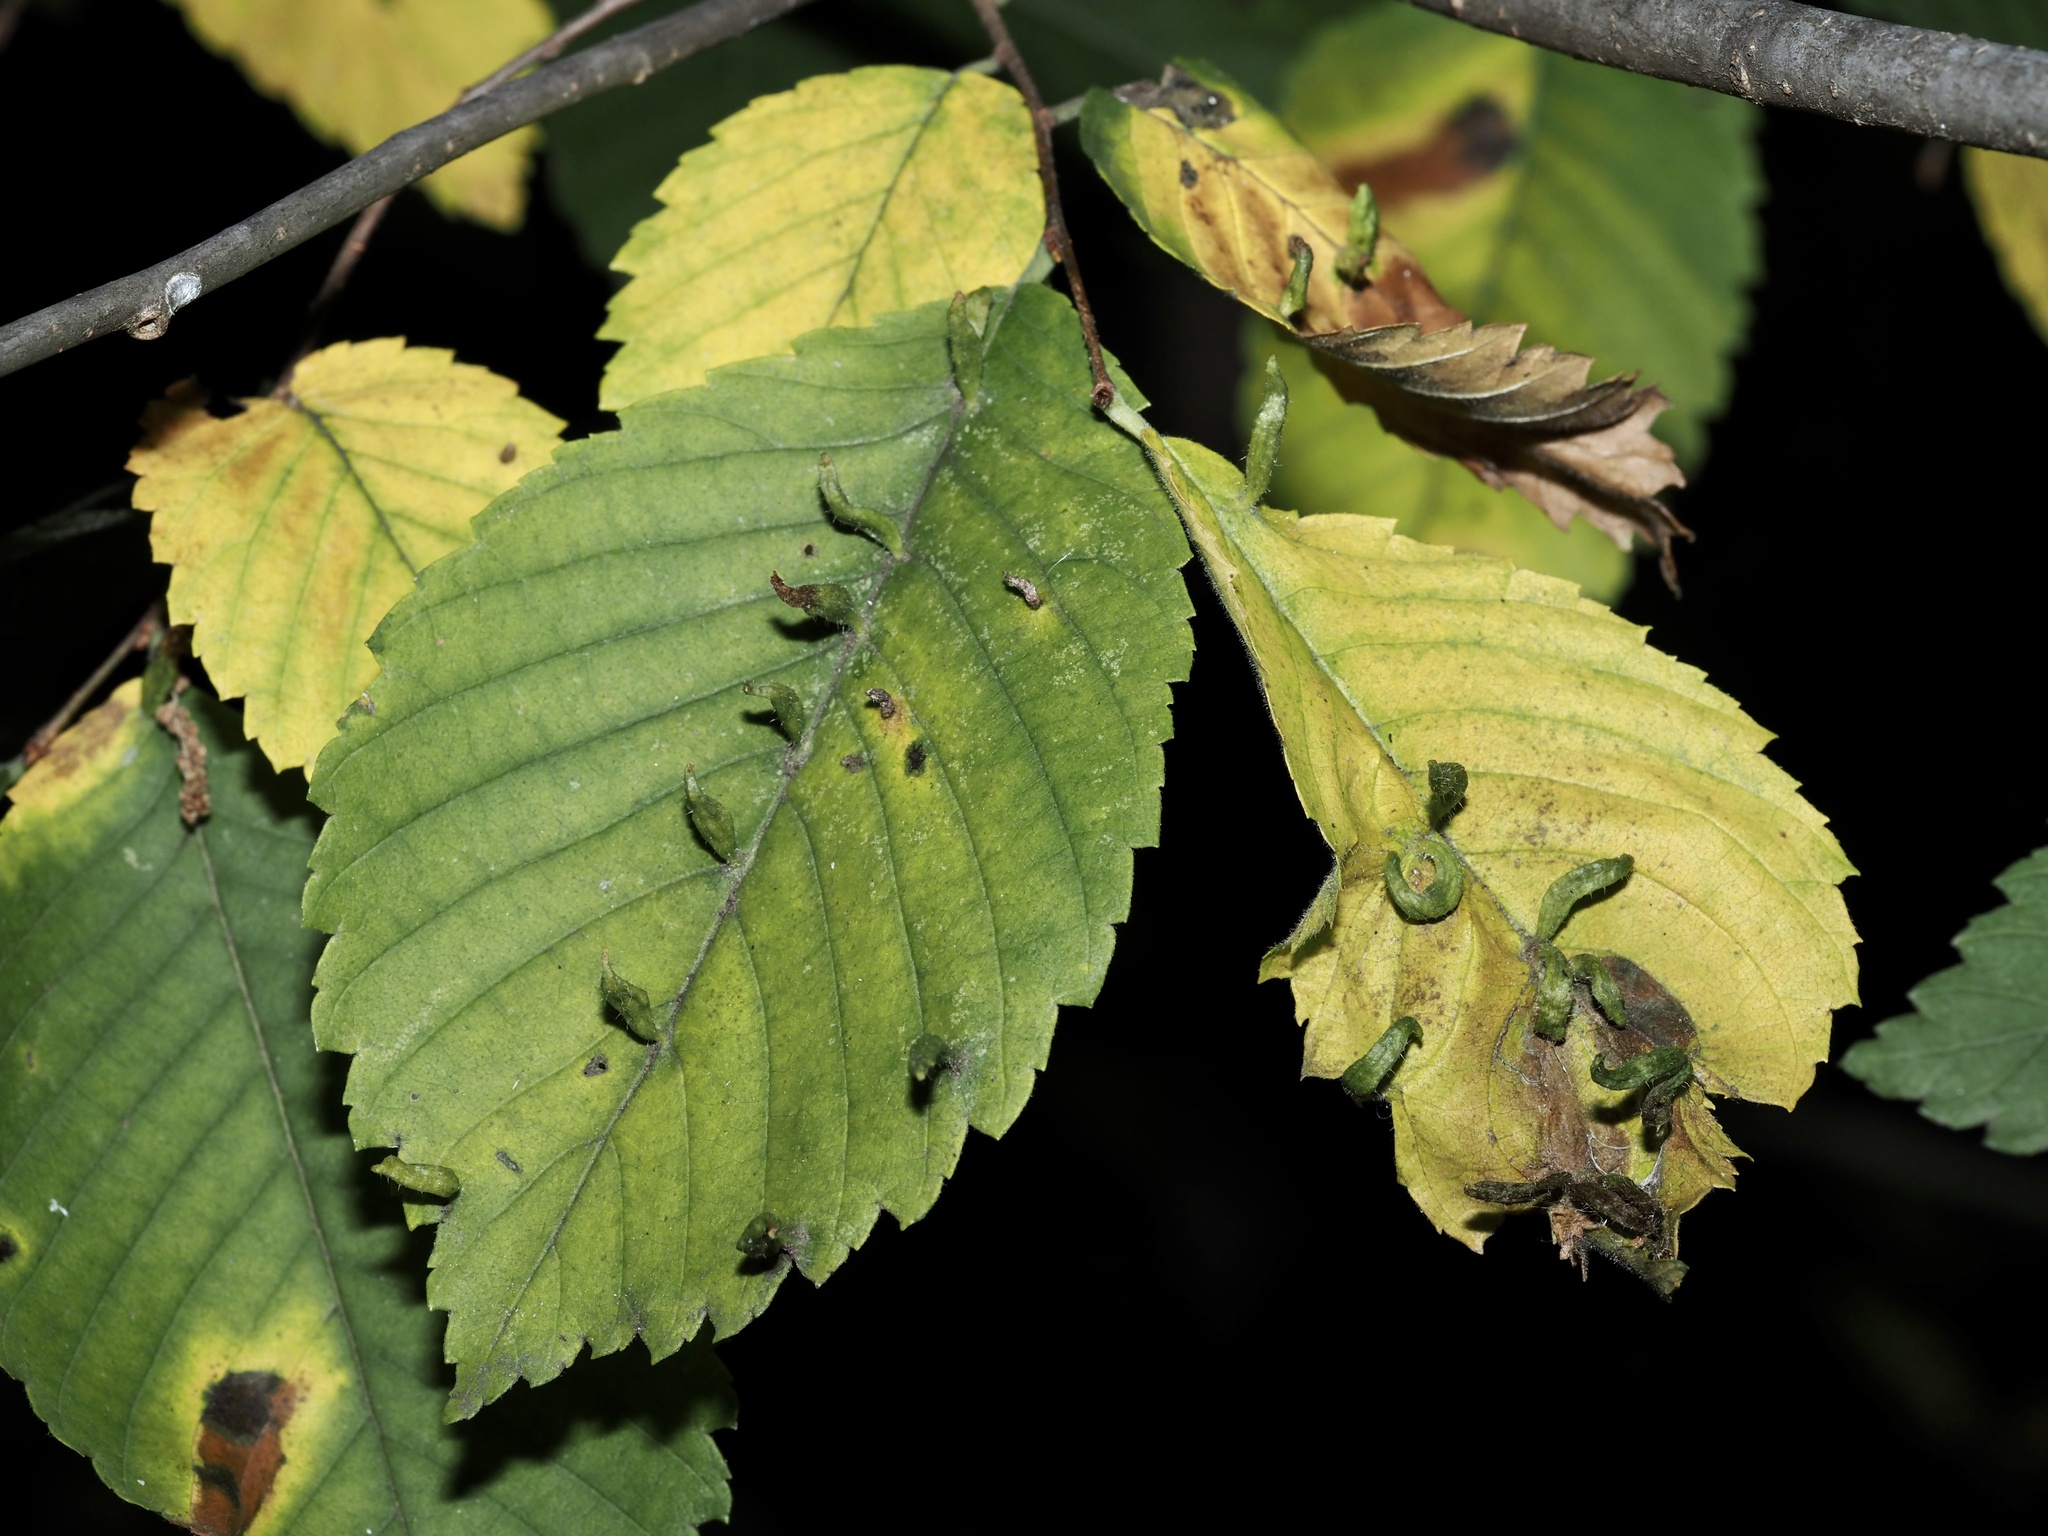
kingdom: Animalia
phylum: Arthropoda
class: Arachnida
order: Trombidiformes
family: Eriophyidae
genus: Aceria
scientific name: Aceria
